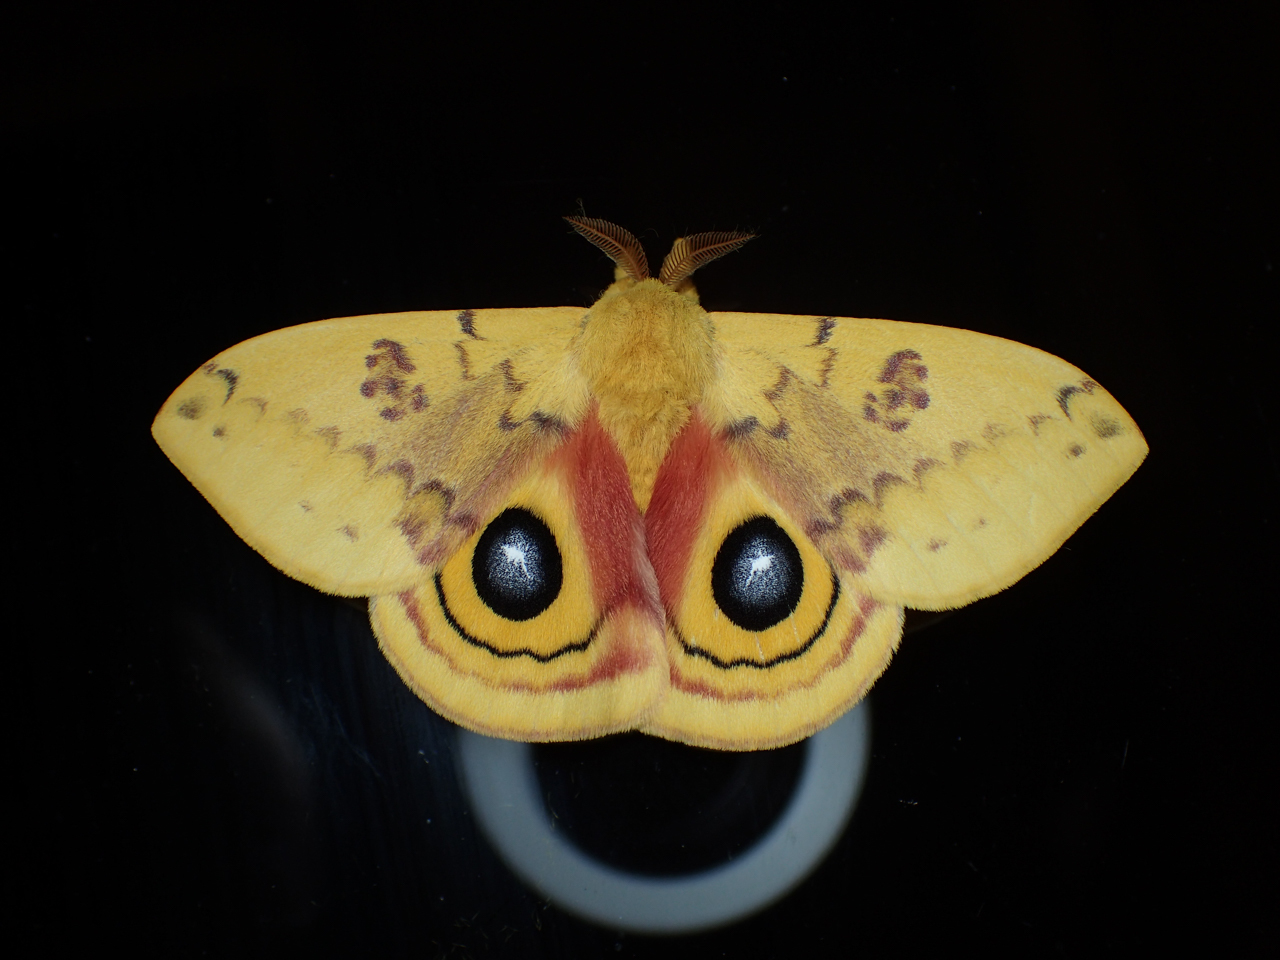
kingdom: Animalia
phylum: Arthropoda
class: Insecta
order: Lepidoptera
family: Saturniidae
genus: Automeris
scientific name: Automeris io
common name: Io moth
